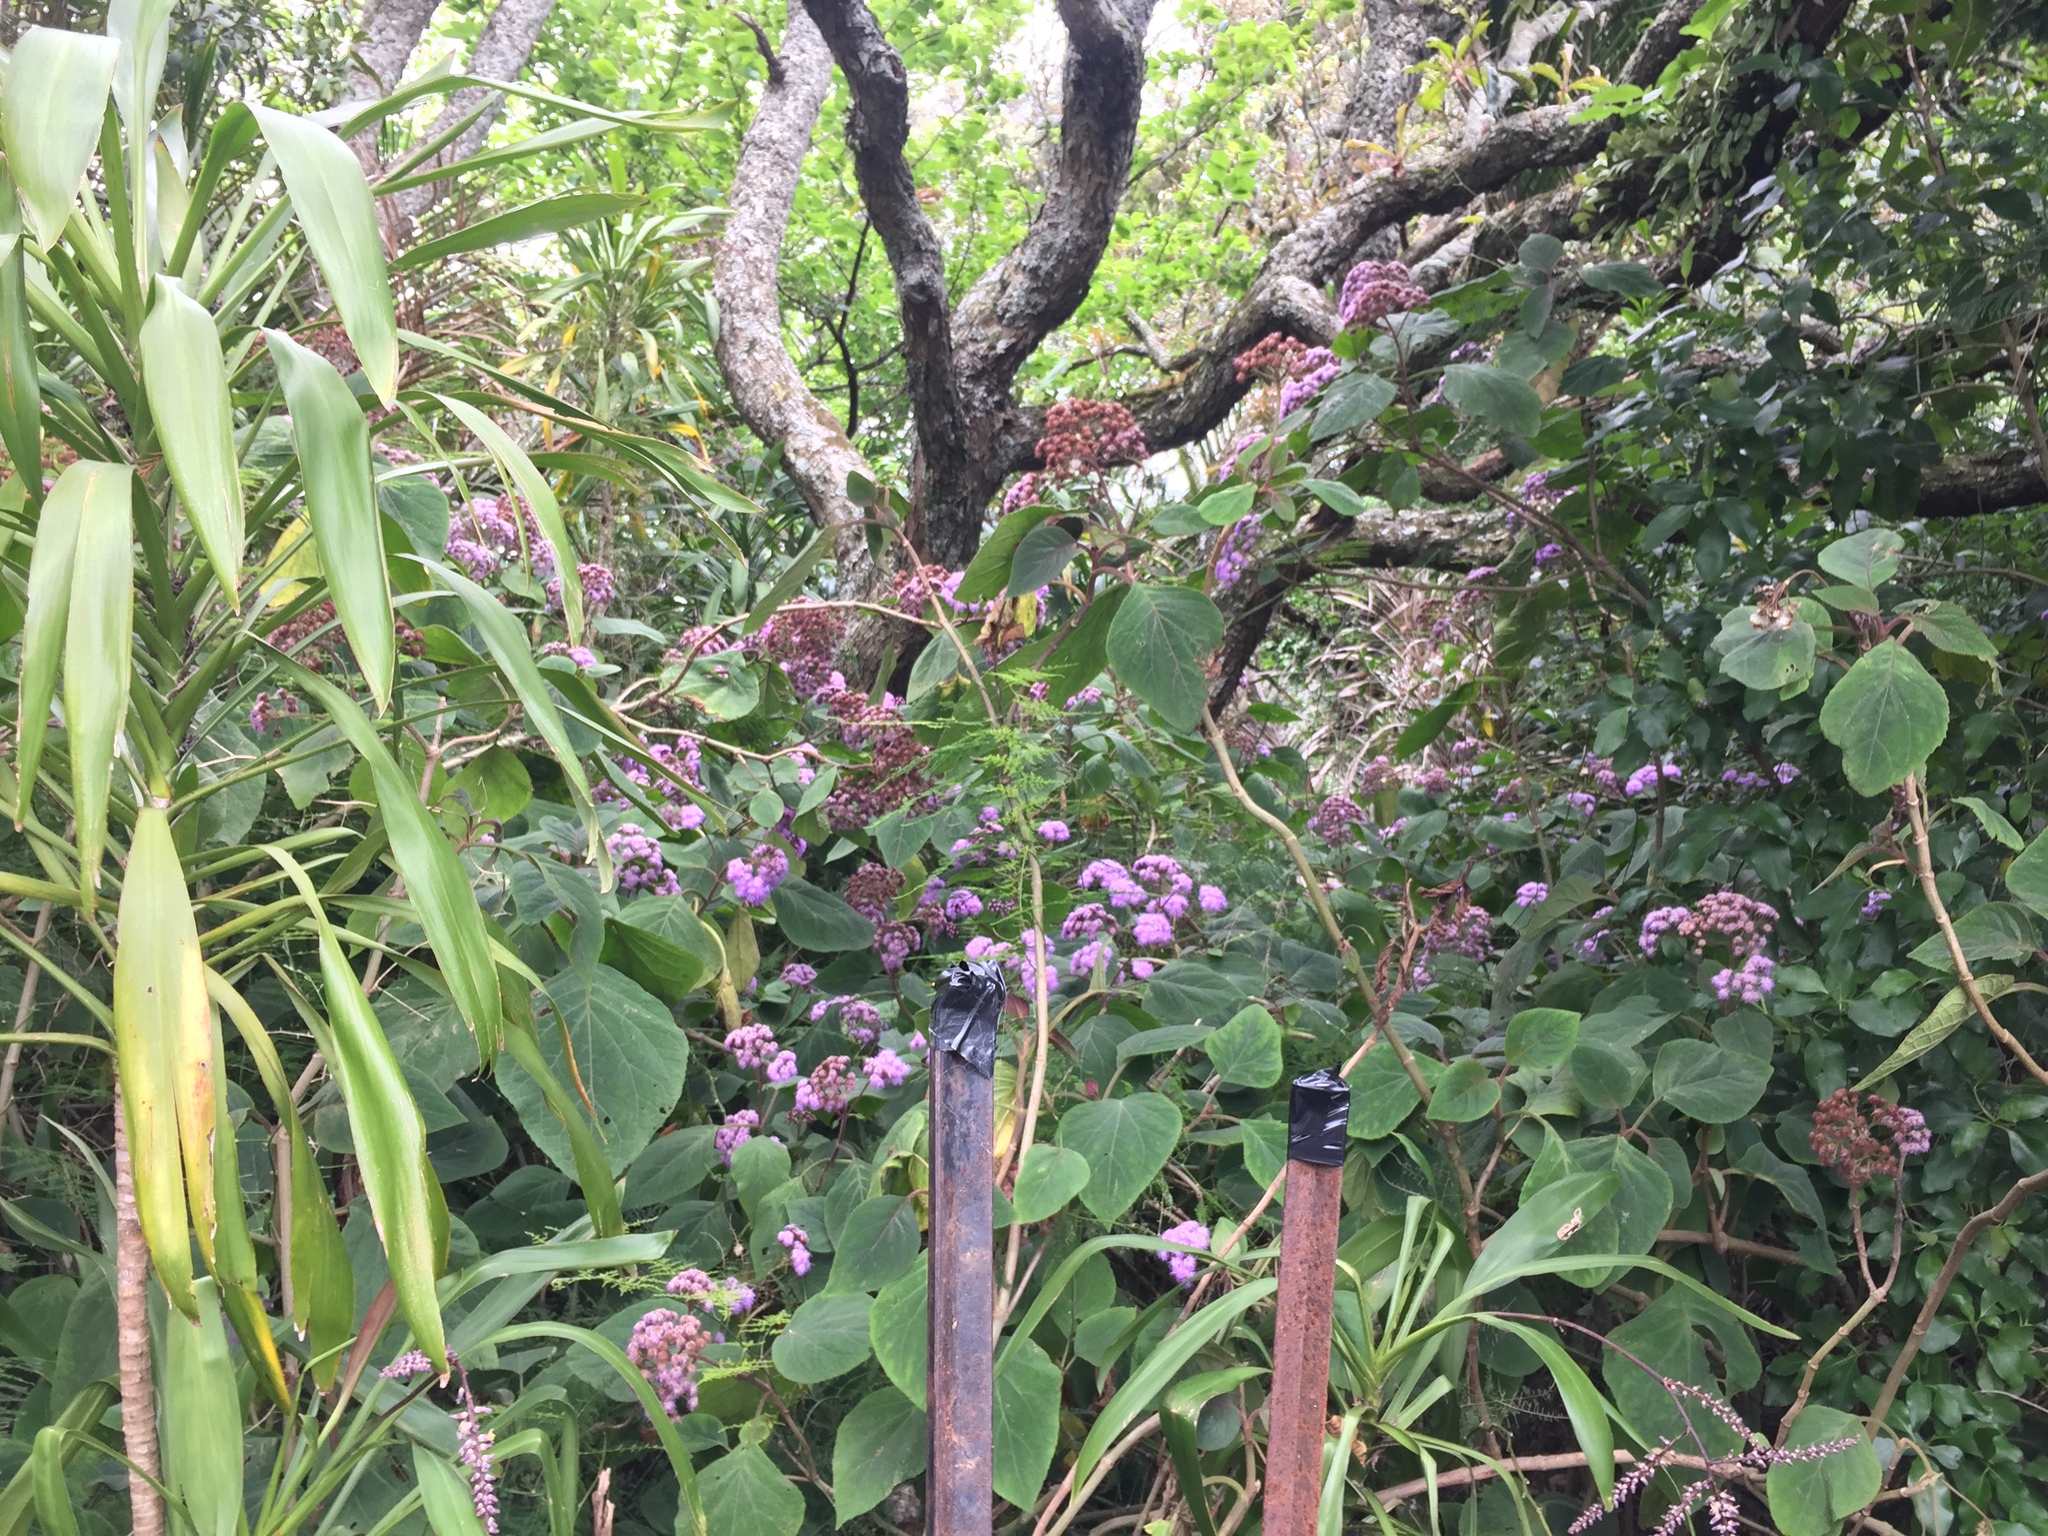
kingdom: Plantae
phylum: Tracheophyta
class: Magnoliopsida
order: Asterales
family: Asteraceae
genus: Bartlettina
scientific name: Bartlettina sordida
